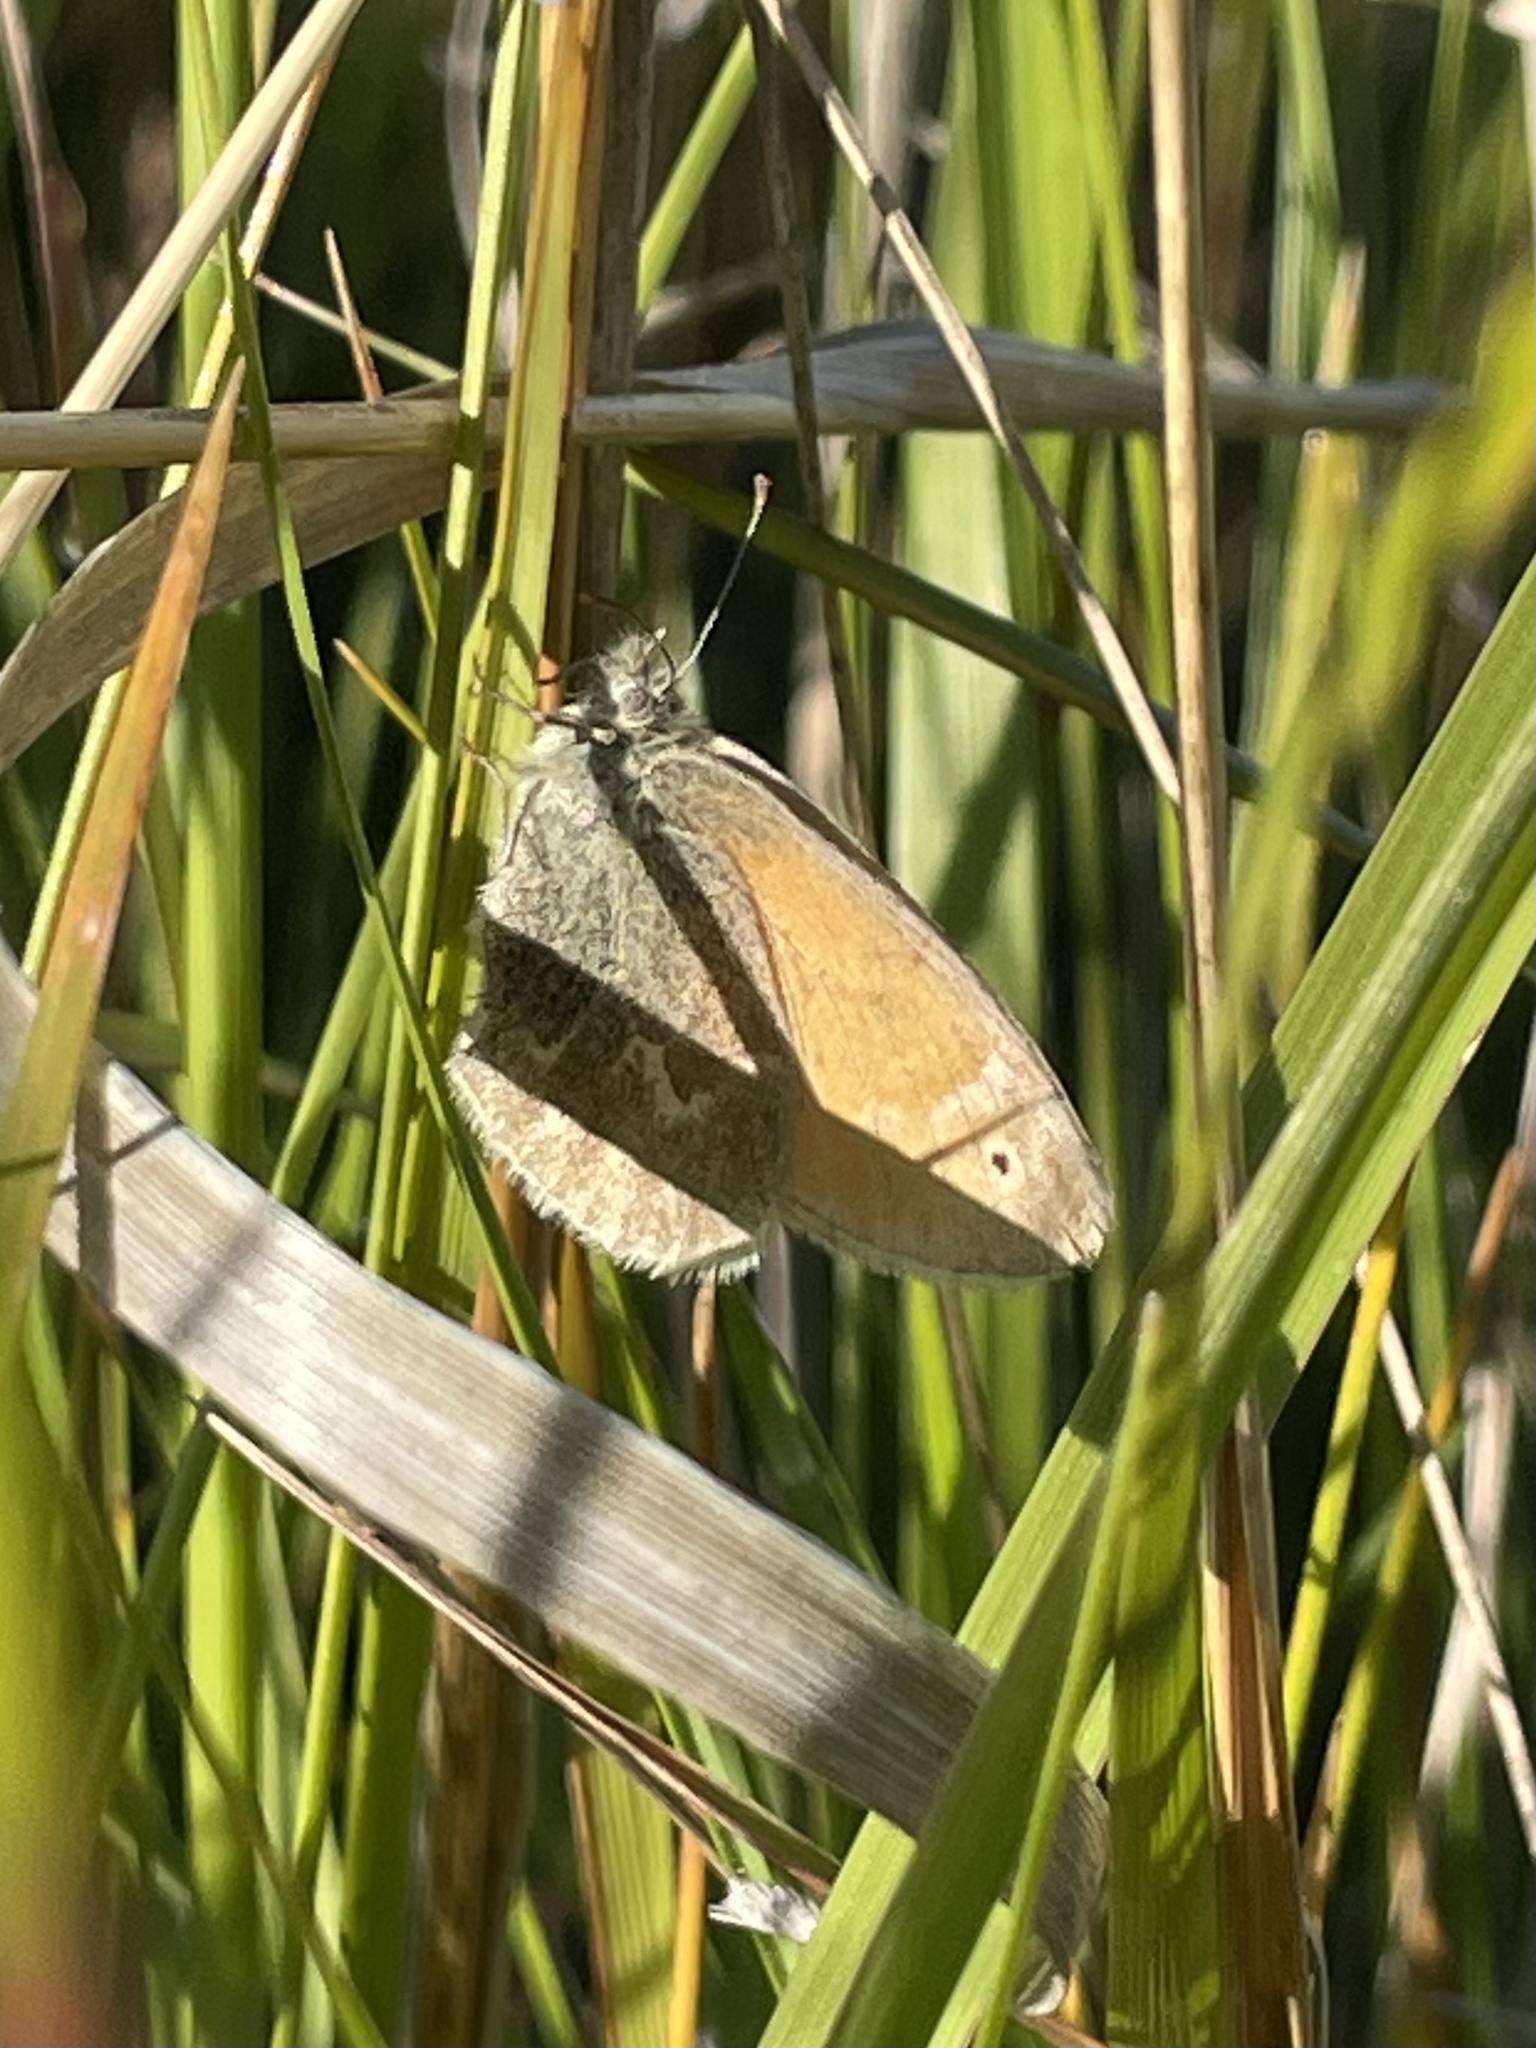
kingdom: Animalia
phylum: Arthropoda
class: Insecta
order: Lepidoptera
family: Nymphalidae
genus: Coenonympha
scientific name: Coenonympha california
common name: Common ringlet
